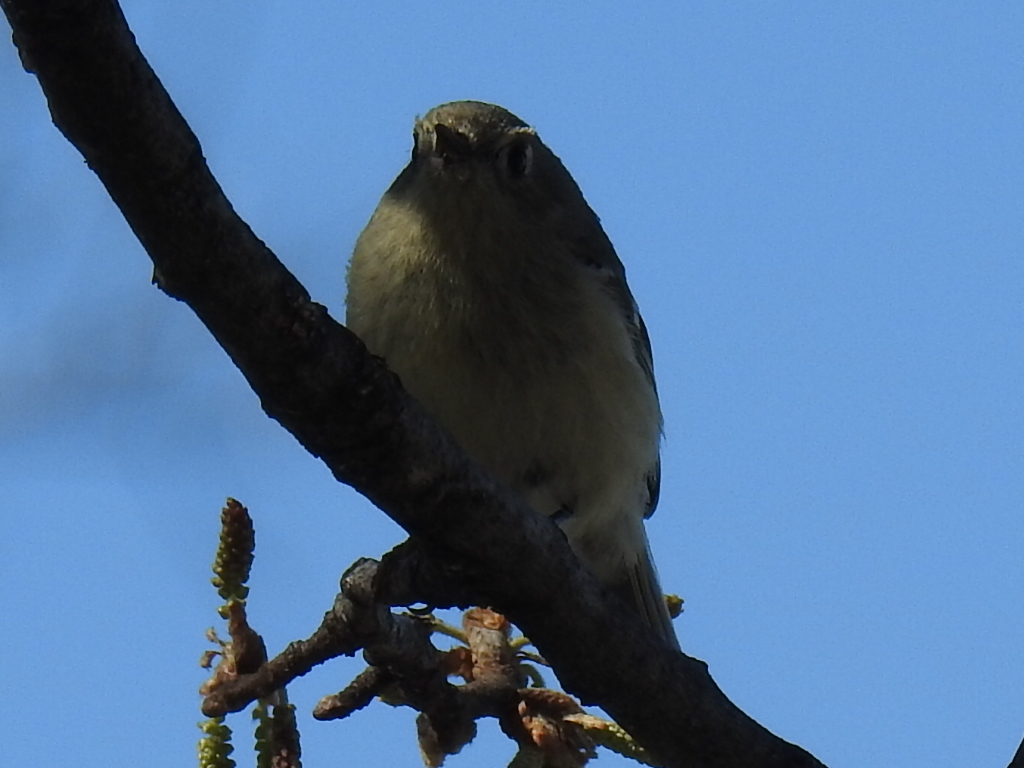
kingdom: Animalia
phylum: Chordata
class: Aves
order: Passeriformes
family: Regulidae
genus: Regulus
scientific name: Regulus calendula
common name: Ruby-crowned kinglet
